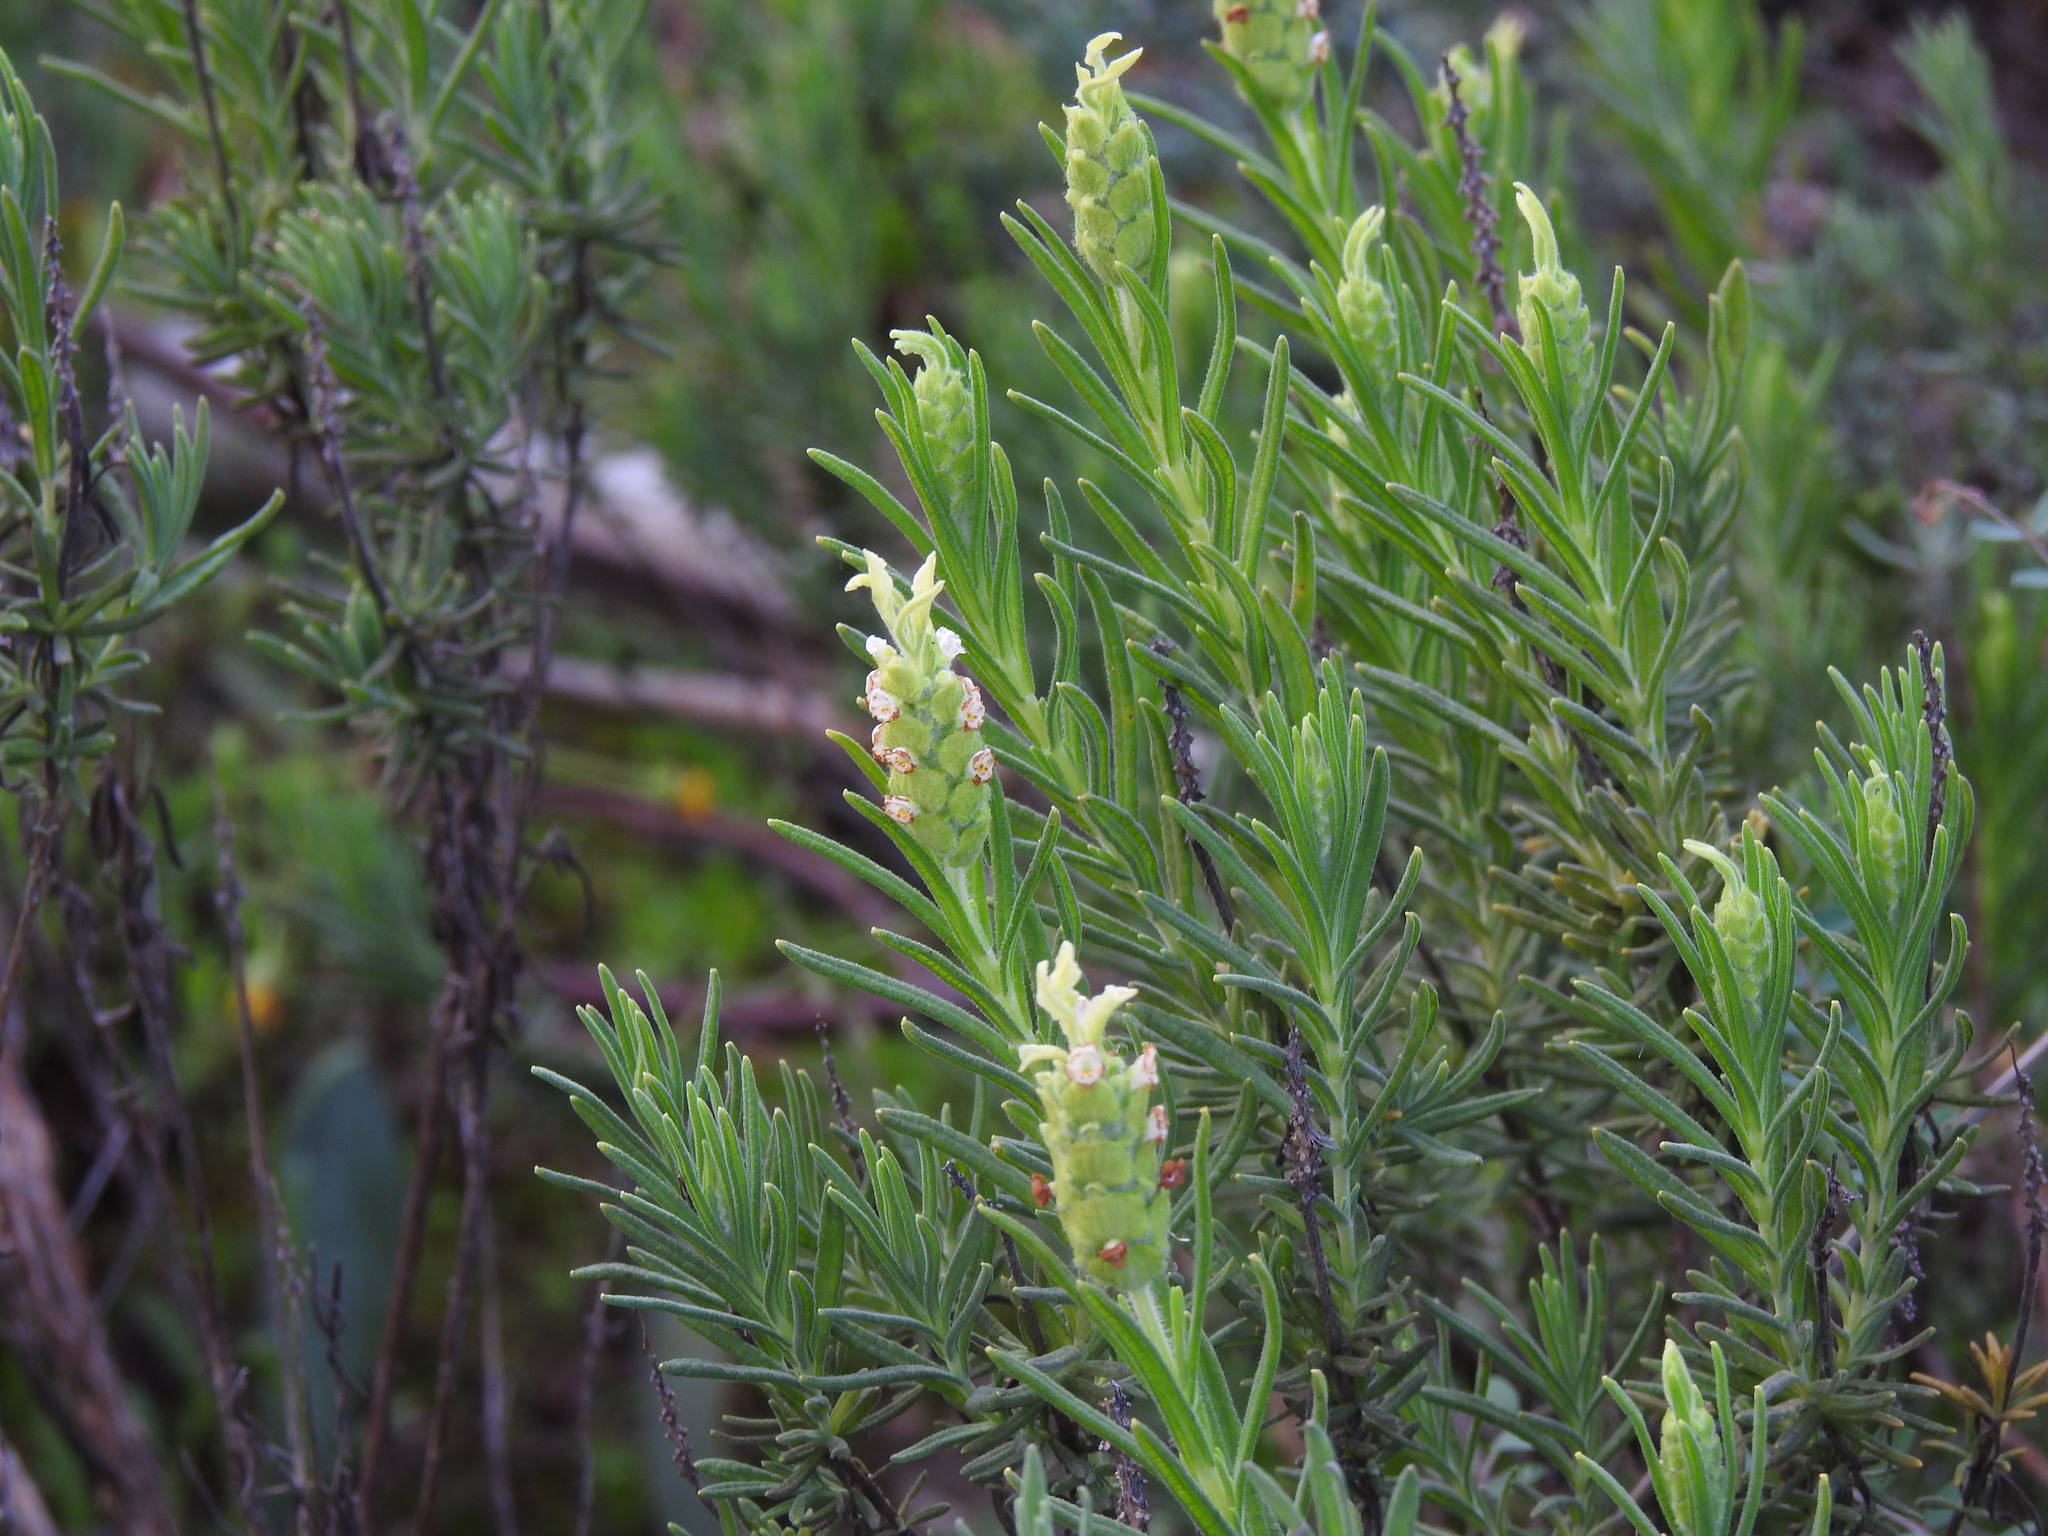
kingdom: Plantae
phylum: Tracheophyta
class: Magnoliopsida
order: Lamiales
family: Lamiaceae
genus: Lavandula
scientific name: Lavandula viridis
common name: Green spanish lavender
